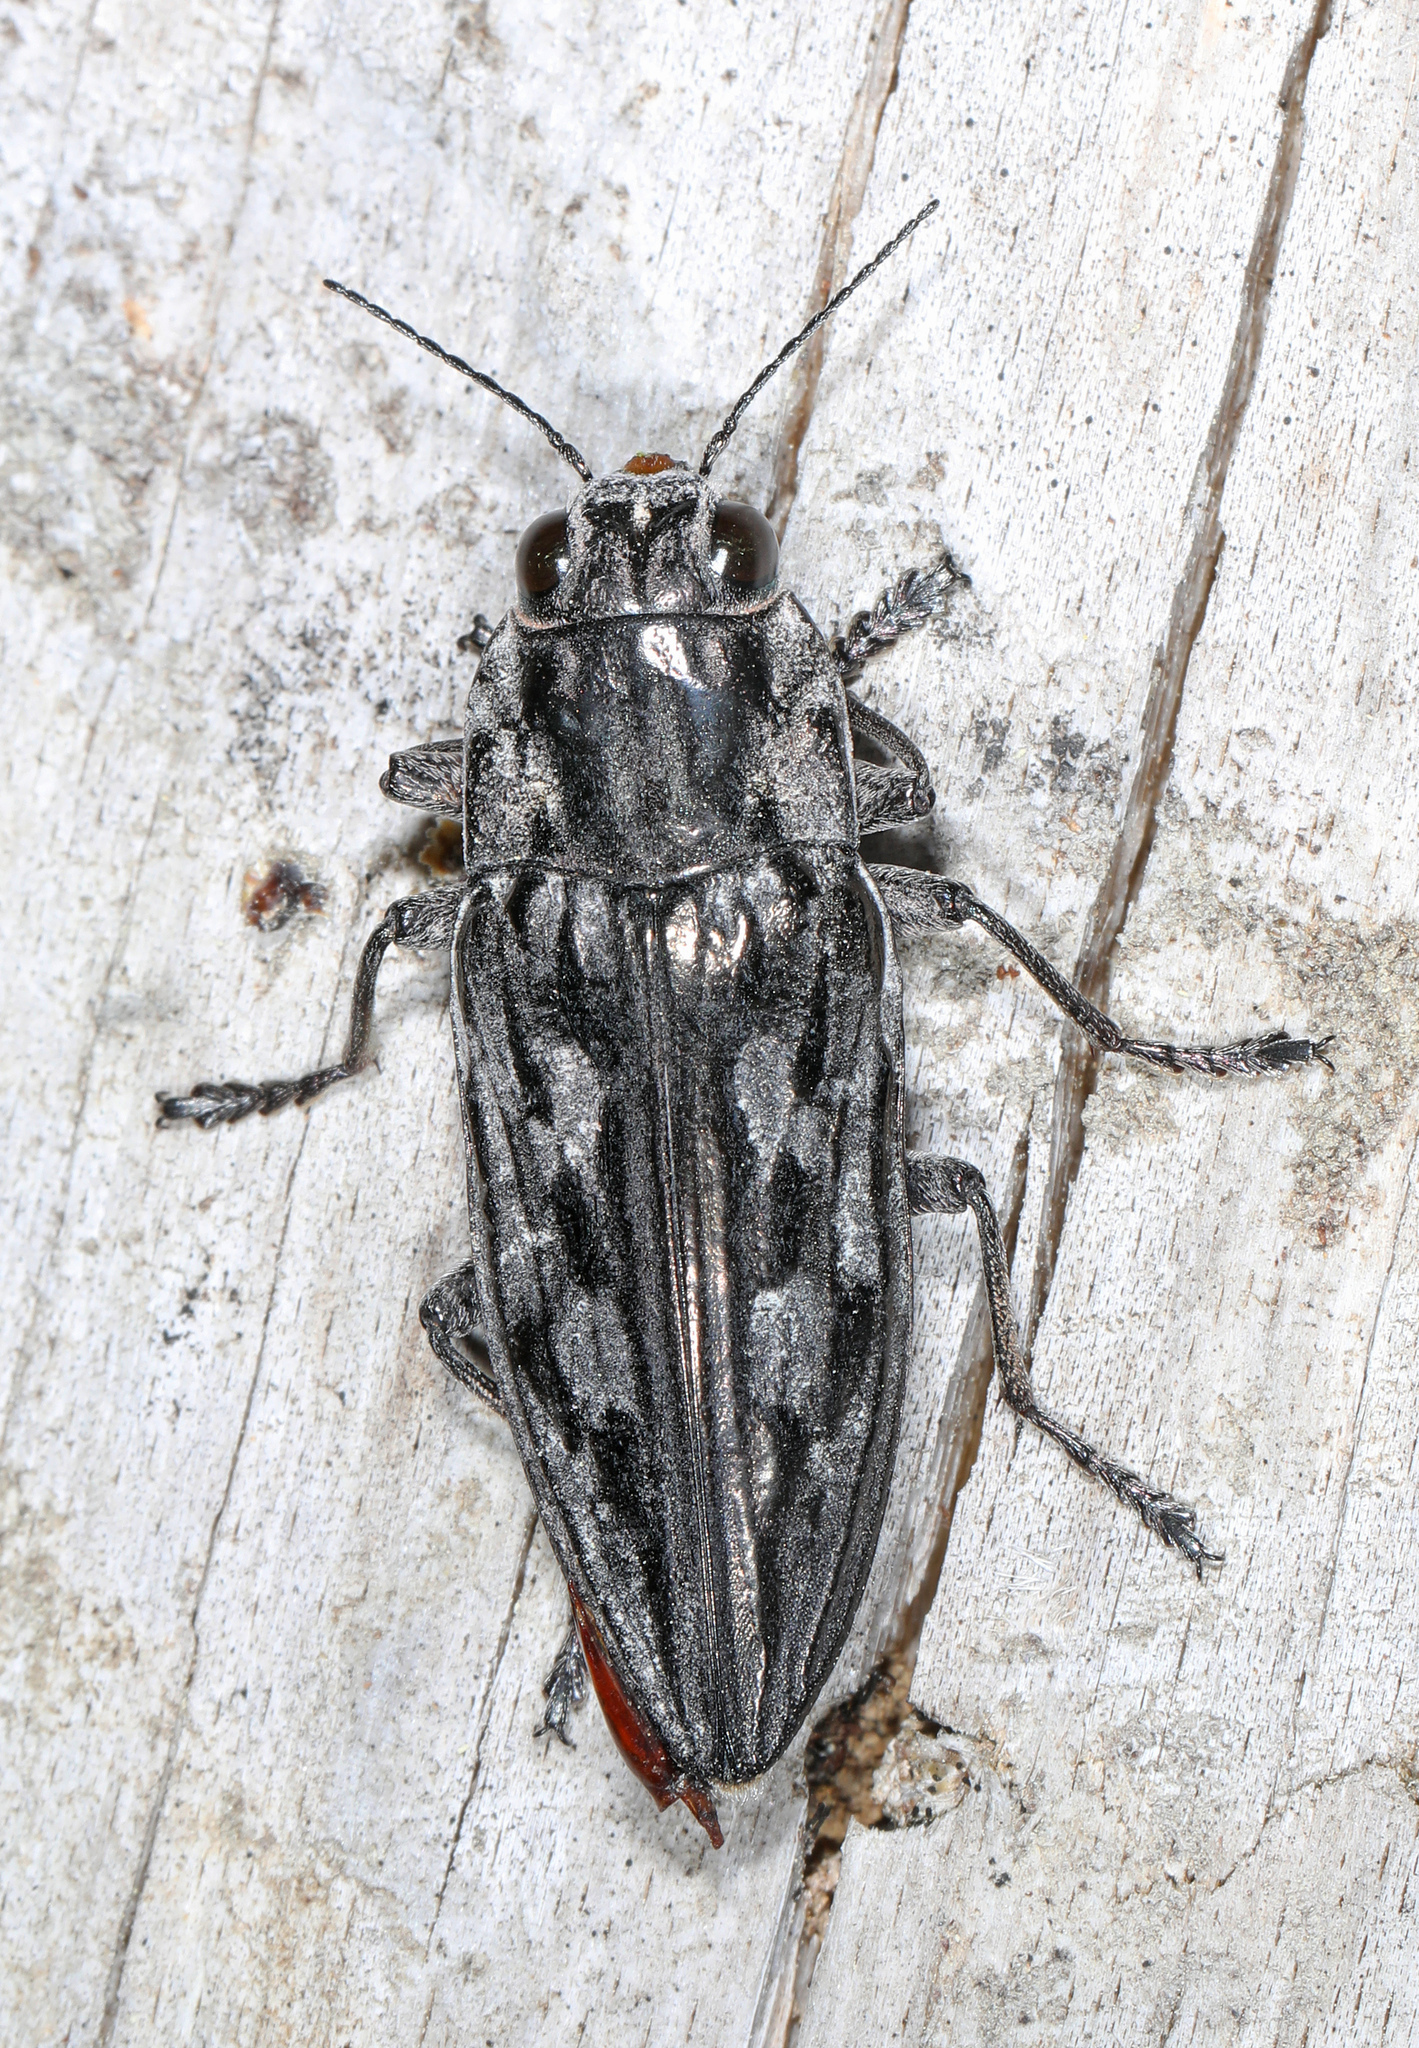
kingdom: Animalia
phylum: Arthropoda
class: Insecta
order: Coleoptera
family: Buprestidae
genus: Chalcophora
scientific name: Chalcophora virginiensis
